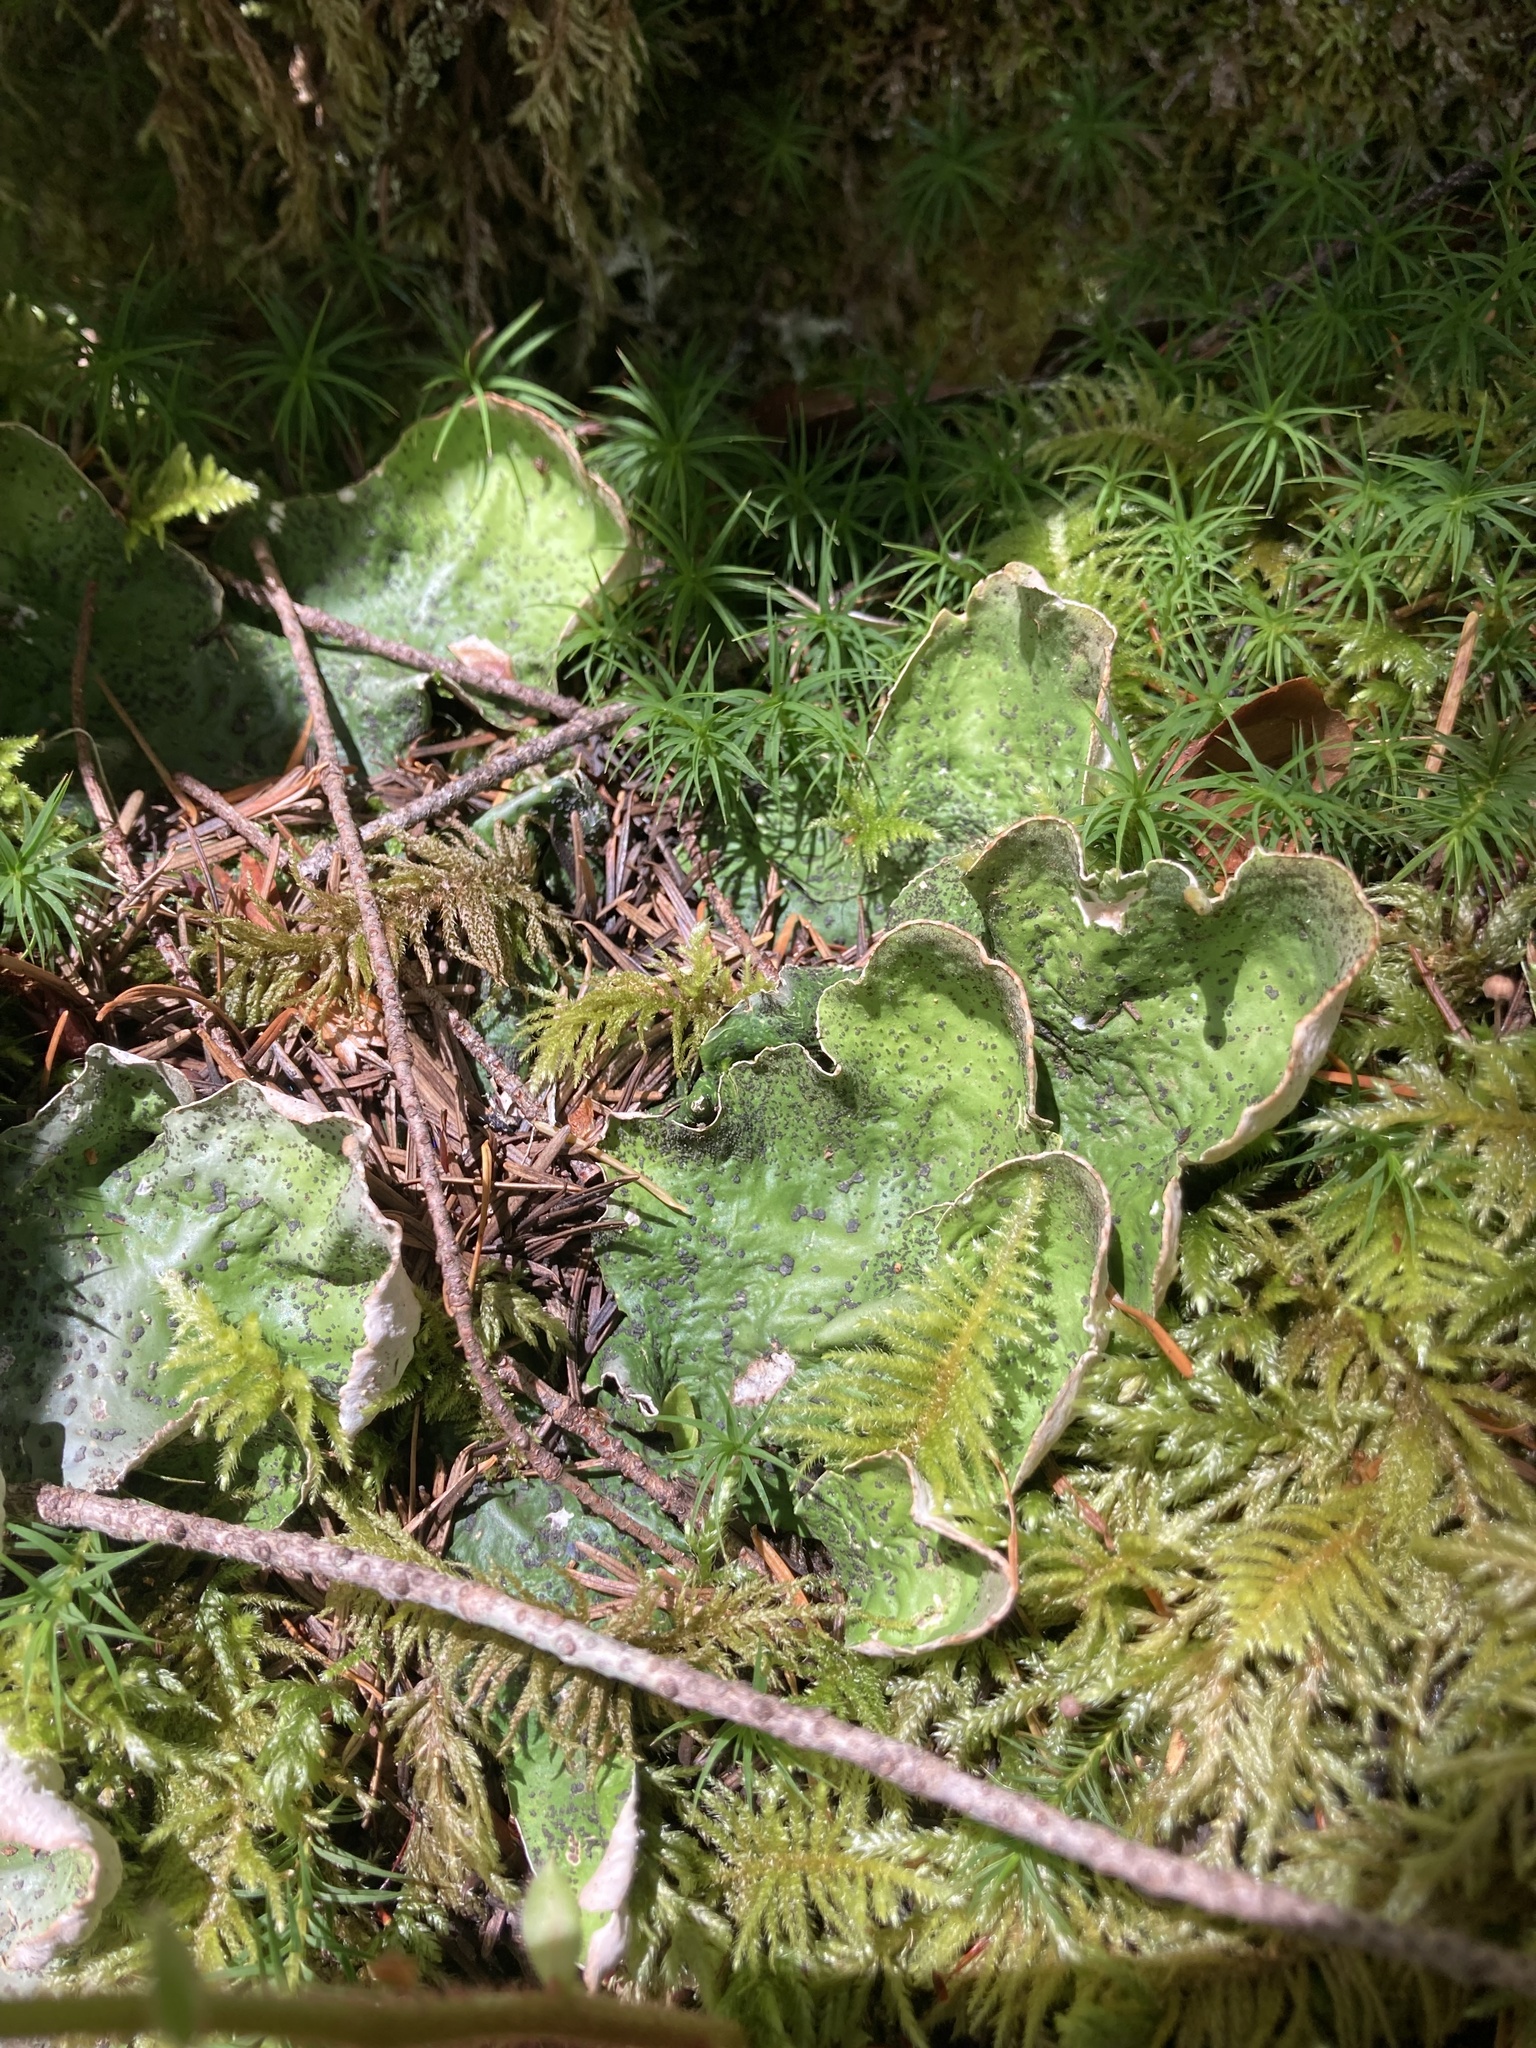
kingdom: Fungi
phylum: Ascomycota
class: Lecanoromycetes
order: Peltigerales
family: Peltigeraceae
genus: Peltigera
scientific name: Peltigera britannica
